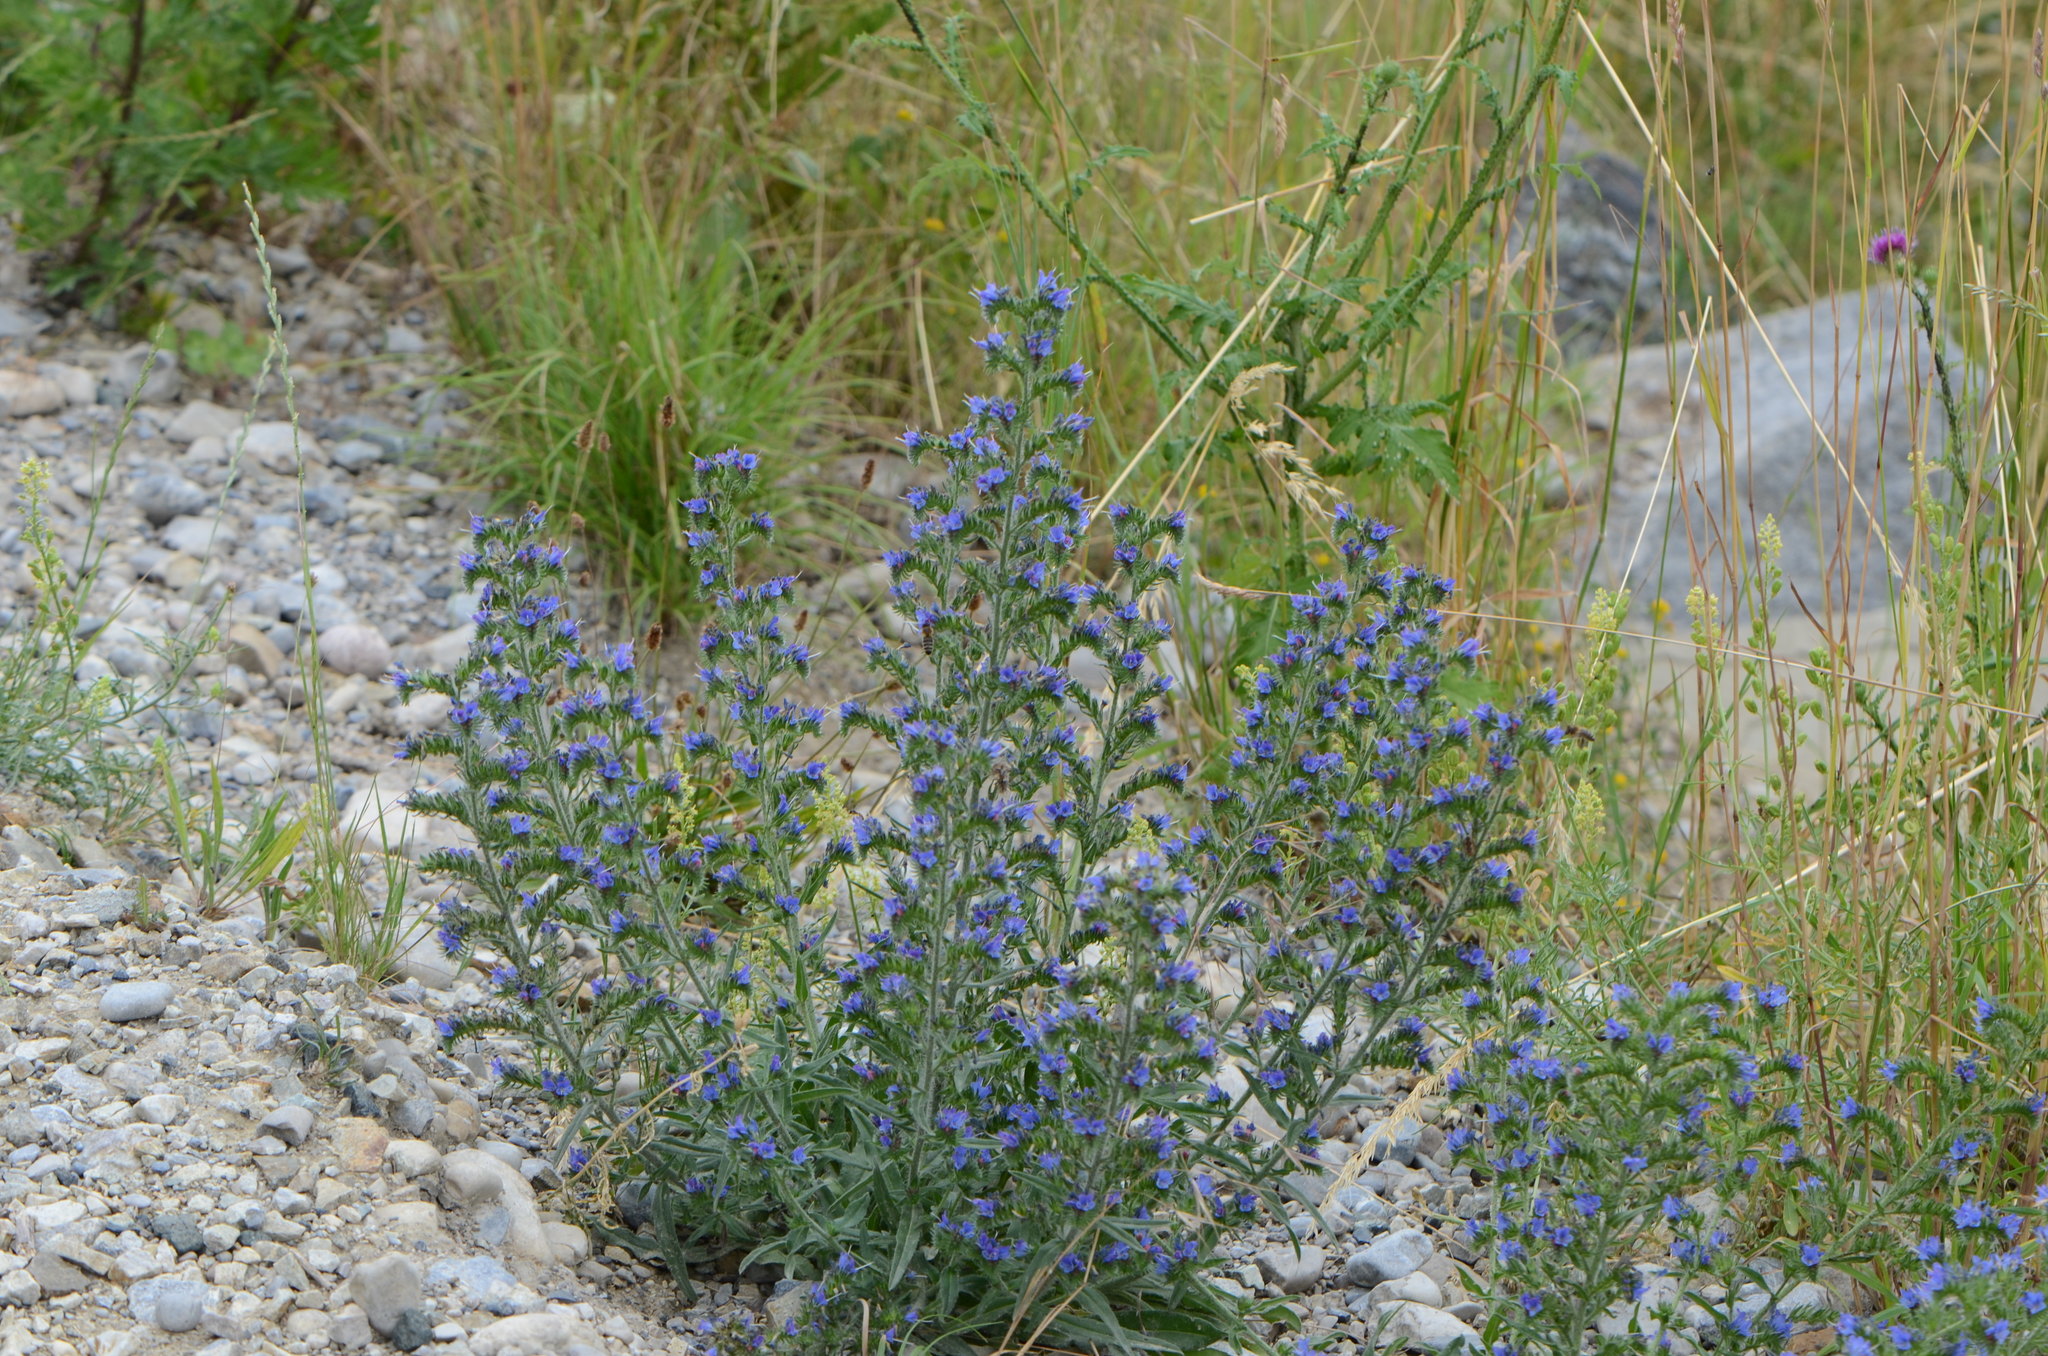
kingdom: Plantae
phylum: Tracheophyta
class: Magnoliopsida
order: Boraginales
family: Boraginaceae
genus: Echium
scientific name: Echium vulgare
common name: Common viper's bugloss
